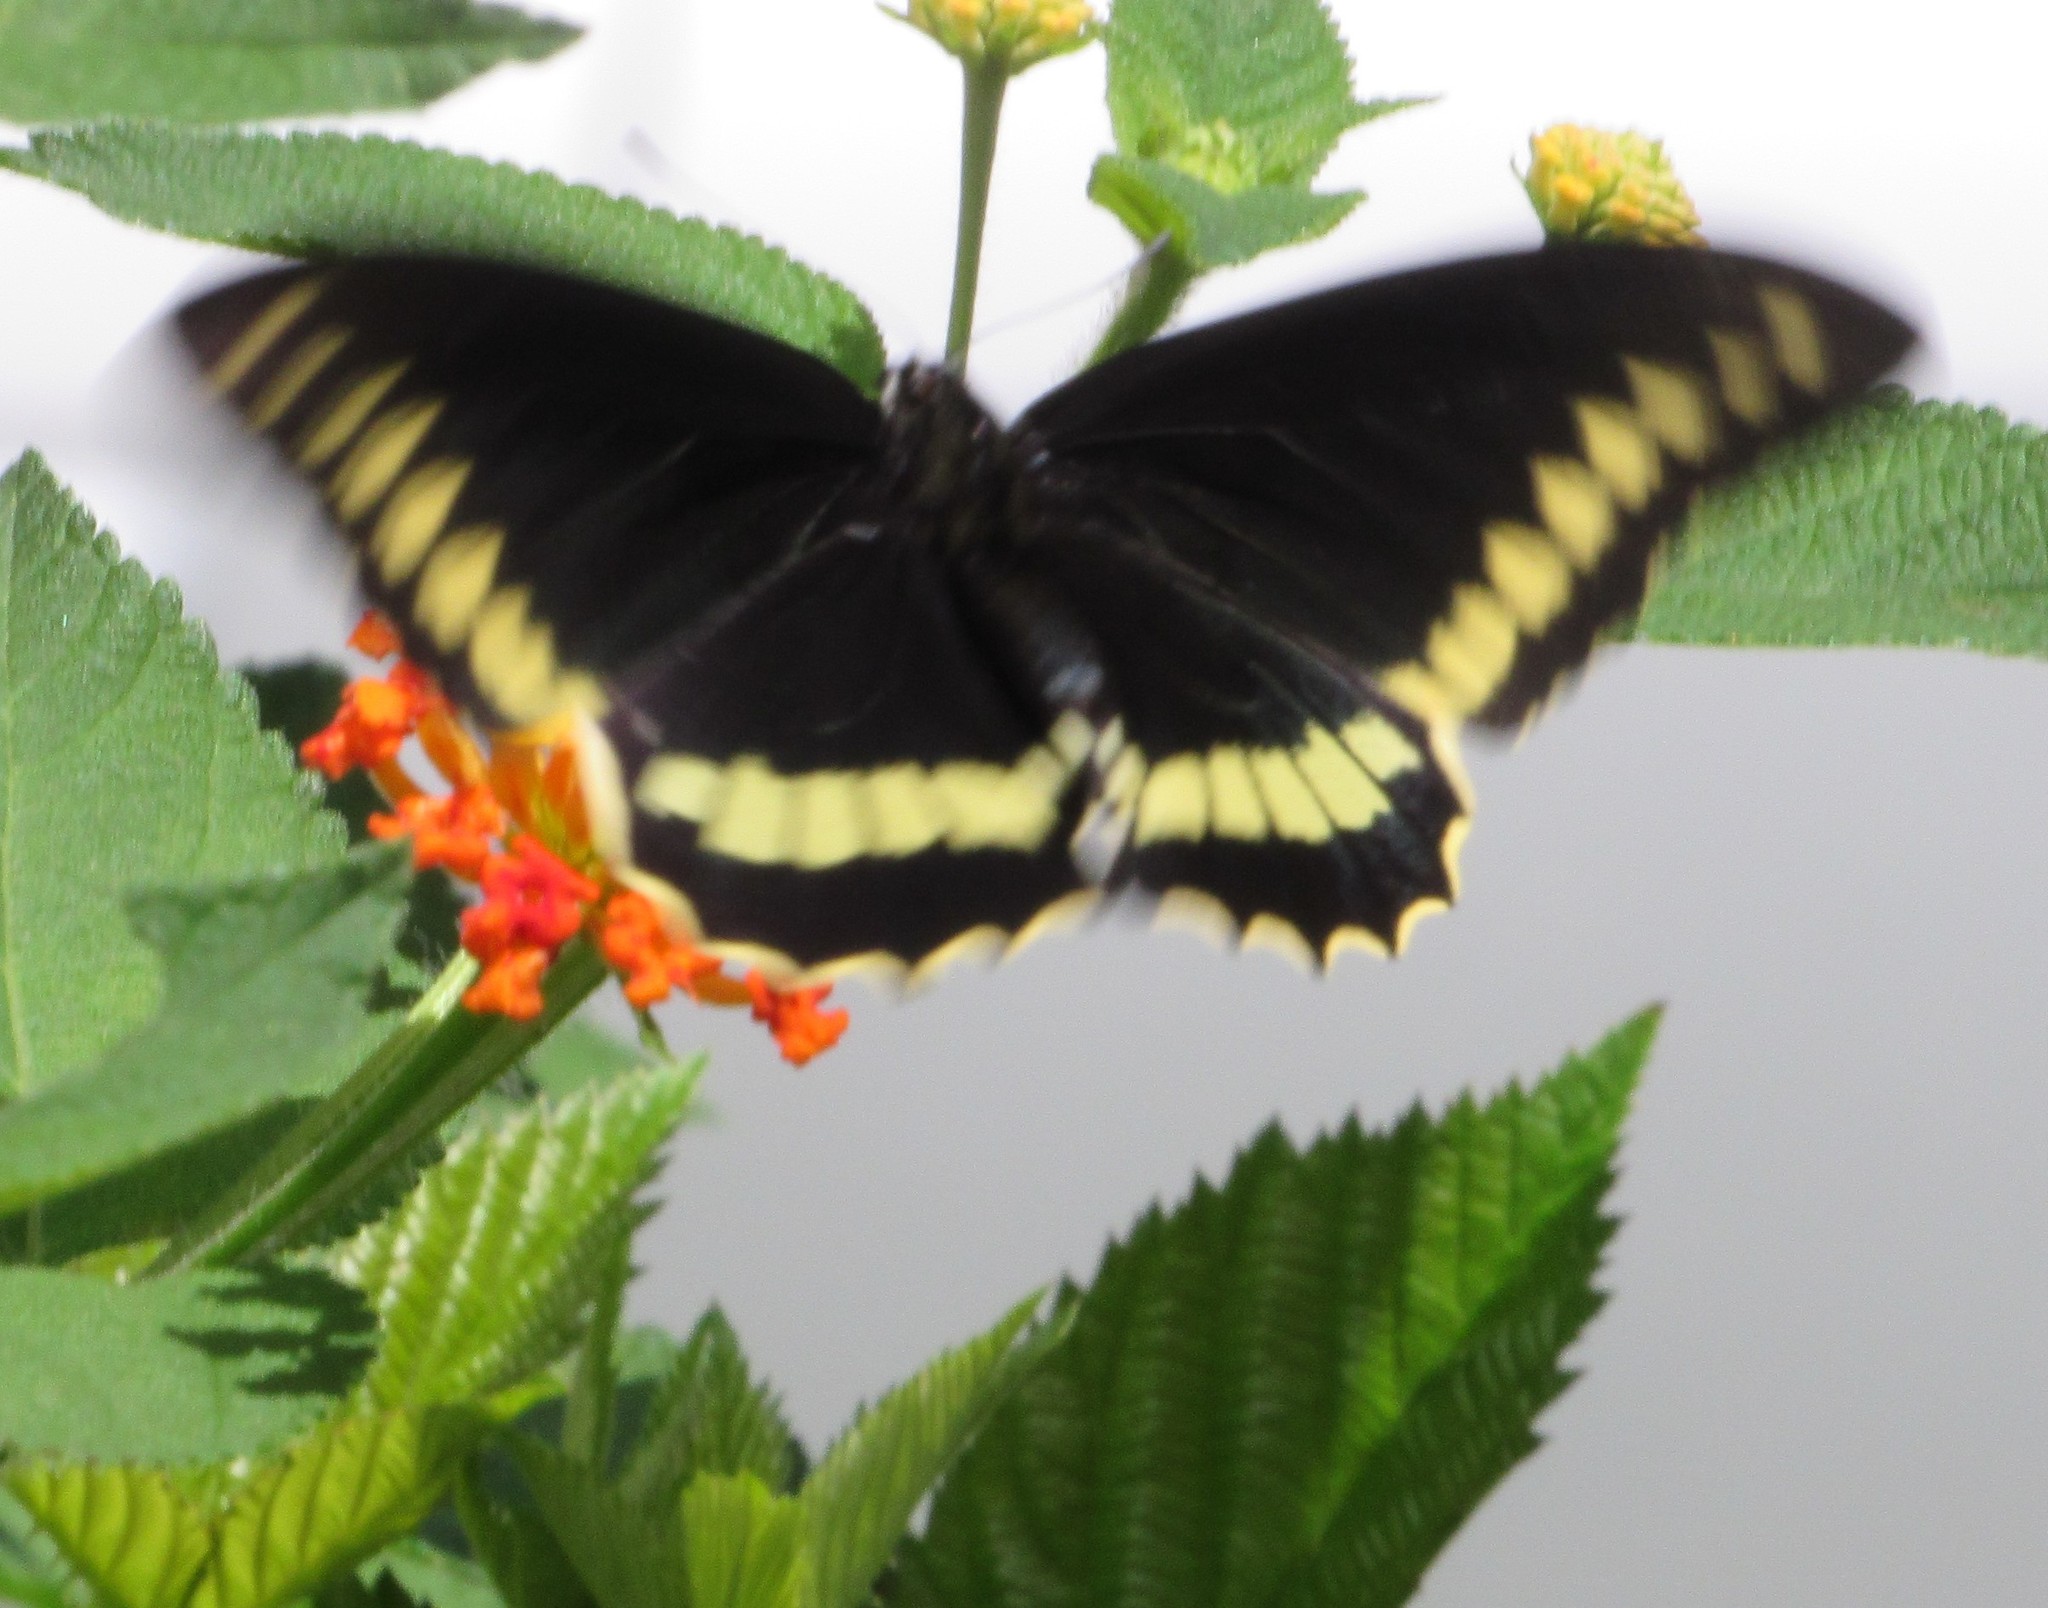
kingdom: Animalia
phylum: Arthropoda
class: Insecta
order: Lepidoptera
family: Papilionidae
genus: Battus
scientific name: Battus polydamas
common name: Polydamas swallowtail
